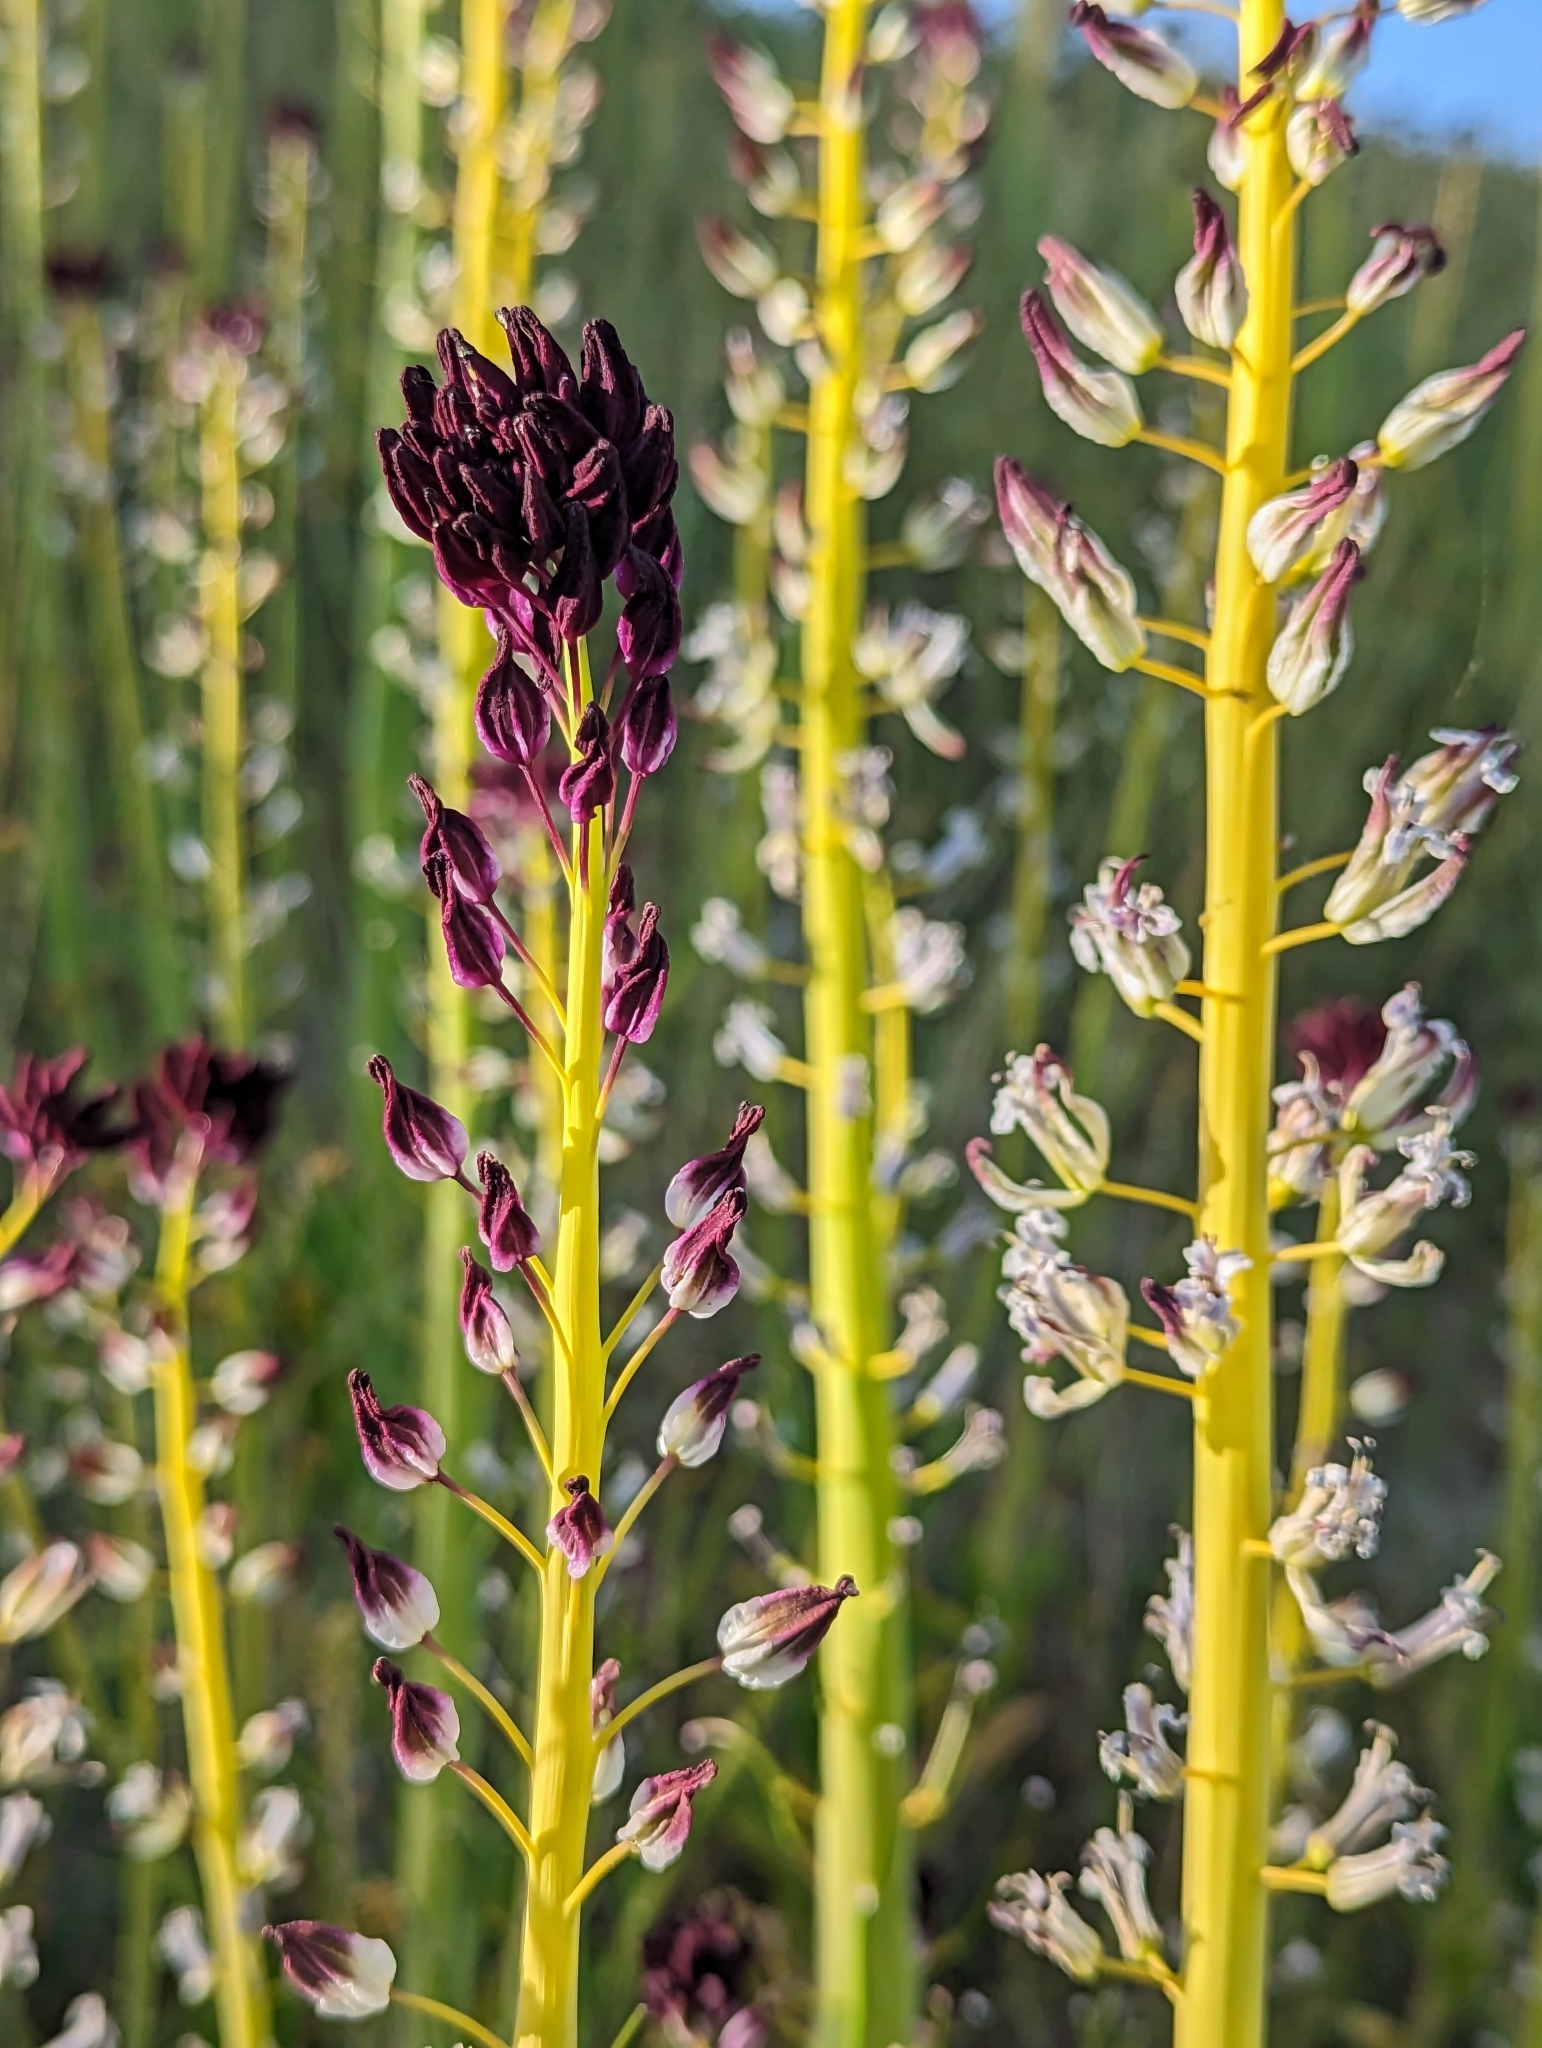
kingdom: Plantae
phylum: Tracheophyta
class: Magnoliopsida
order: Brassicales
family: Brassicaceae
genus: Streptanthus
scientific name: Streptanthus inflatus
